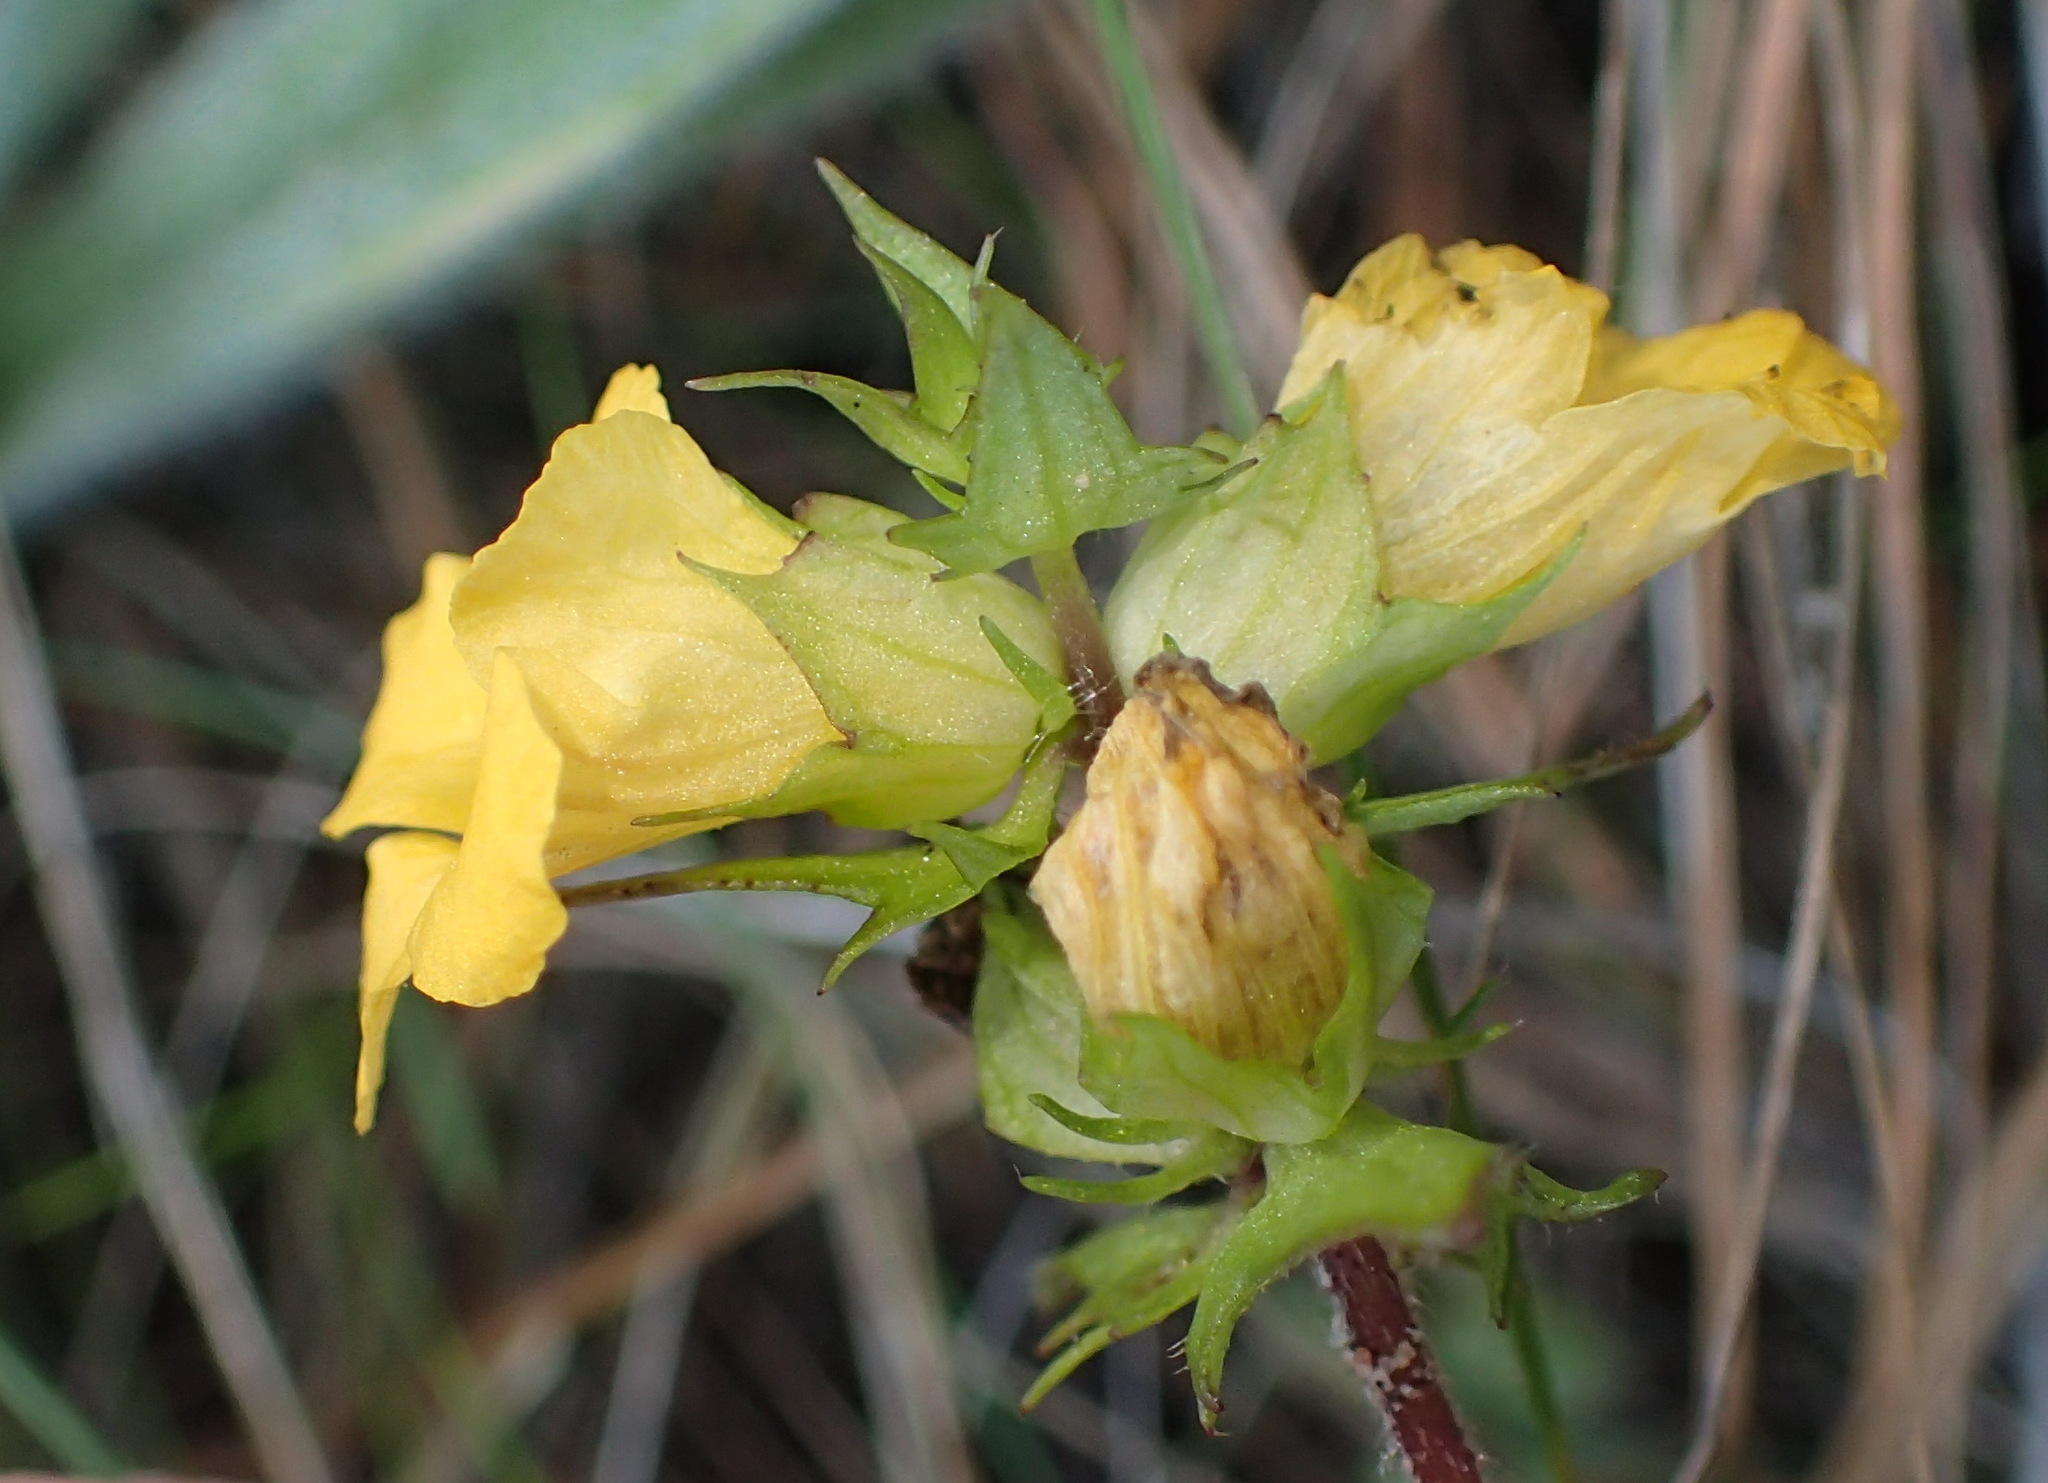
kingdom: Plantae
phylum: Tracheophyta
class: Magnoliopsida
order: Lamiales
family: Orobanchaceae
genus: Alectra
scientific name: Alectra sessiliflora
